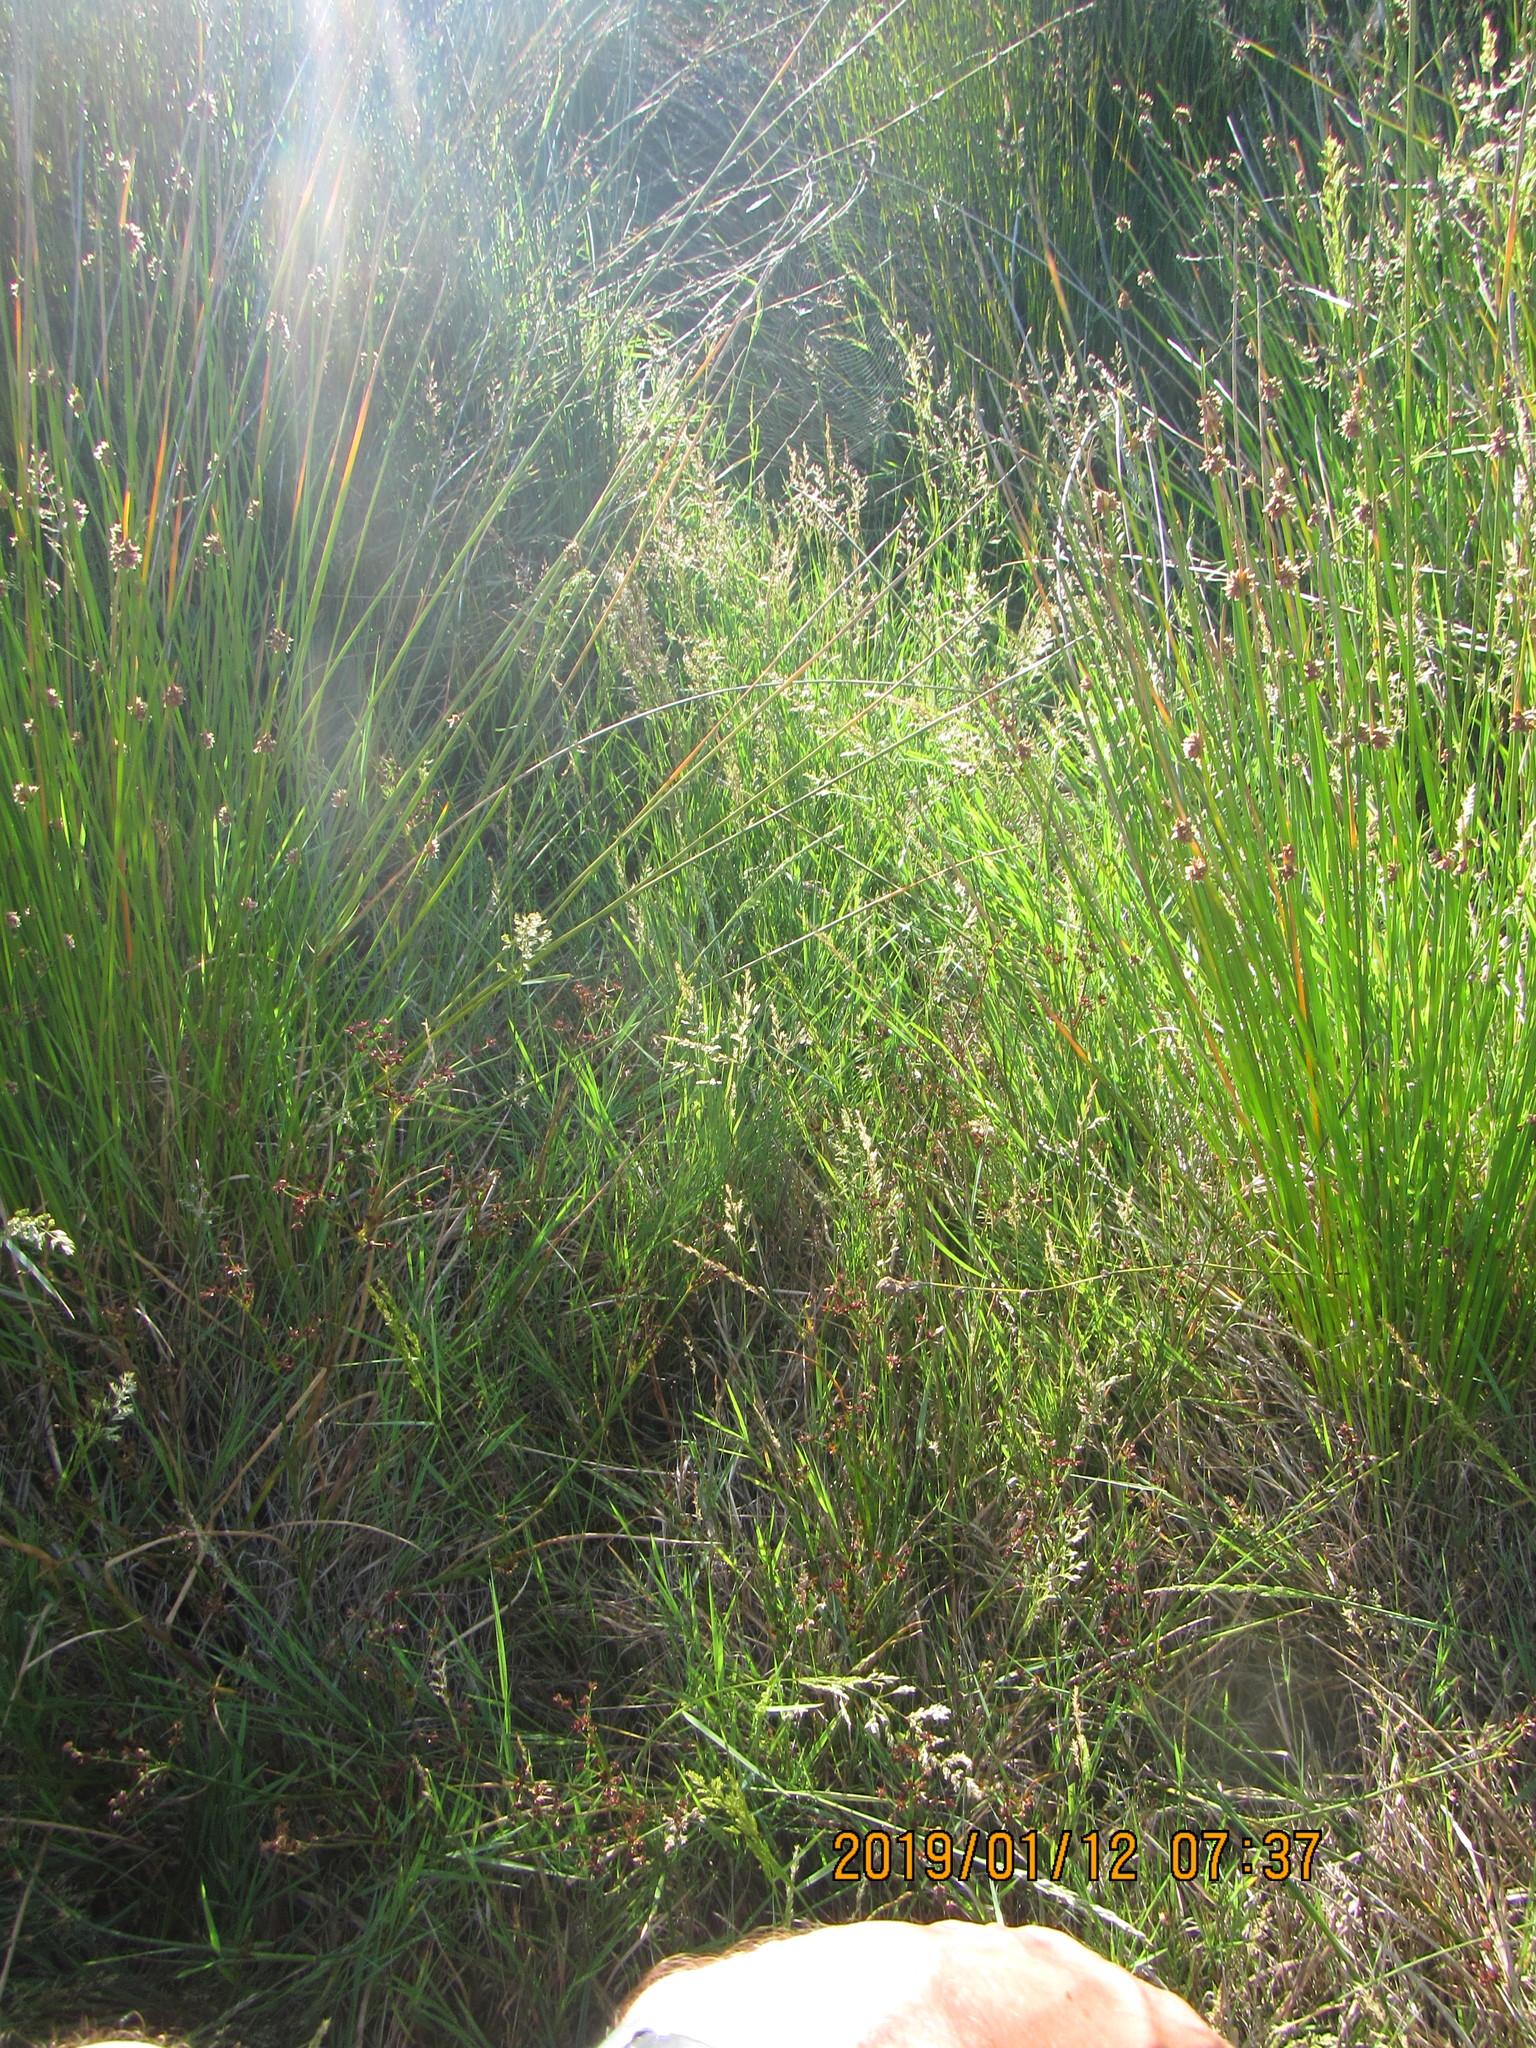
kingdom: Plantae
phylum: Tracheophyta
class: Liliopsida
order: Poales
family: Juncaceae
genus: Juncus
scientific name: Juncus articulatus
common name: Jointed rush
